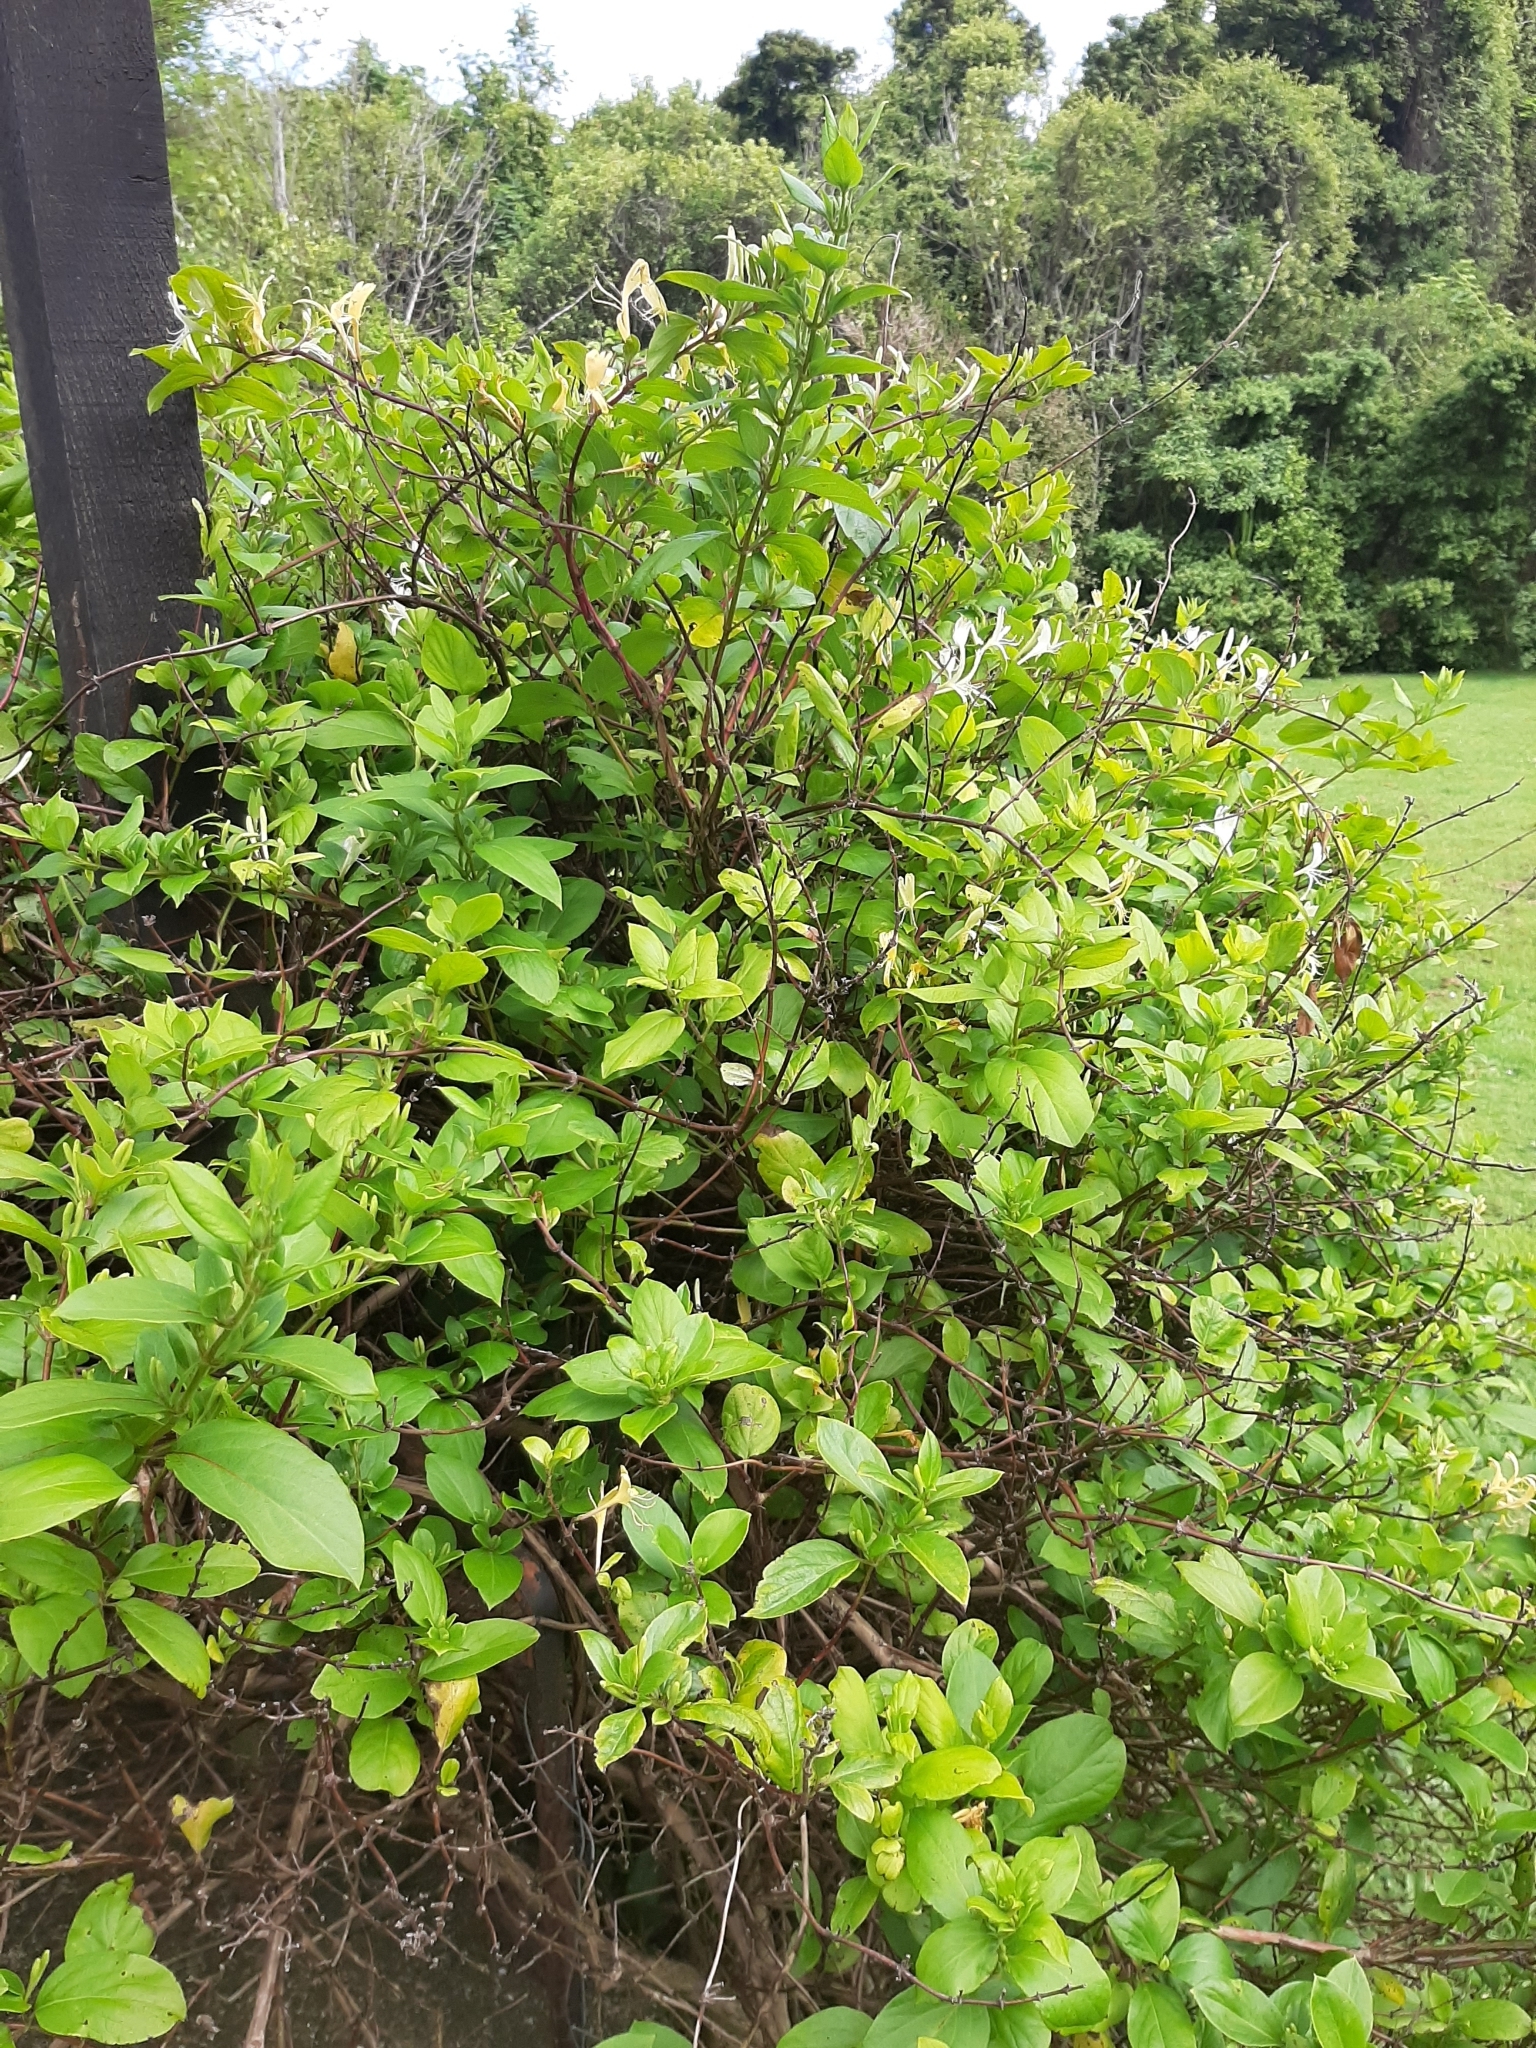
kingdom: Plantae
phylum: Tracheophyta
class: Magnoliopsida
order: Dipsacales
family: Caprifoliaceae
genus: Lonicera
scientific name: Lonicera japonica
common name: Japanese honeysuckle
